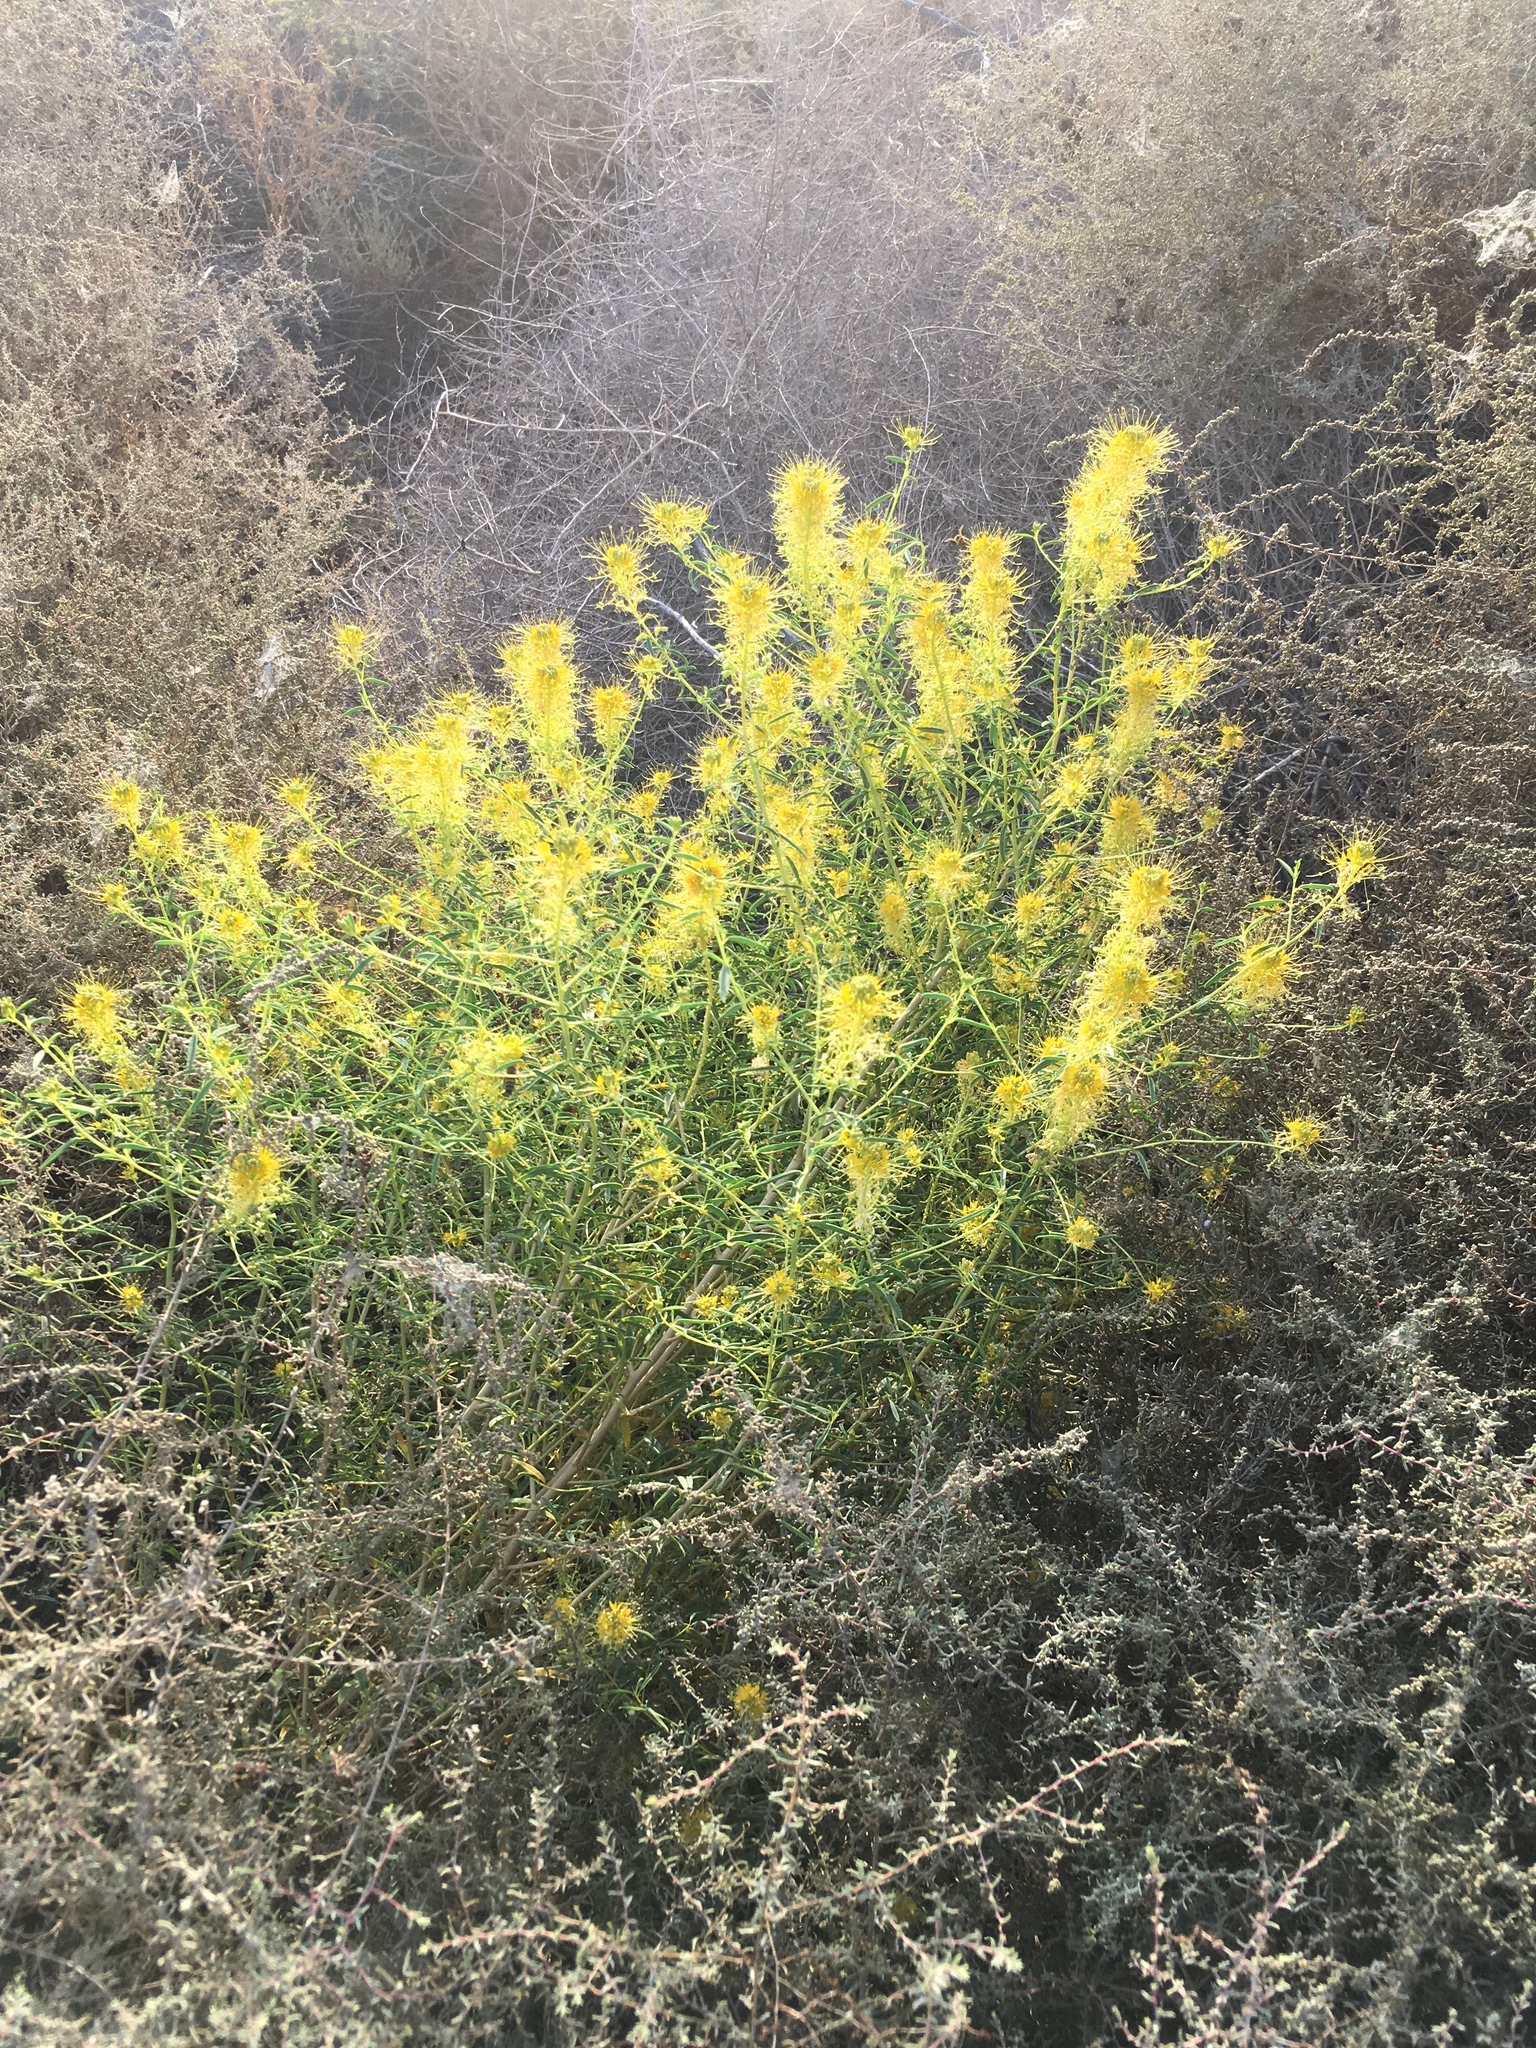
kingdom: Plantae
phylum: Tracheophyta
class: Magnoliopsida
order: Brassicales
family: Cleomaceae
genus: Cleomella
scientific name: Cleomella palmeri
